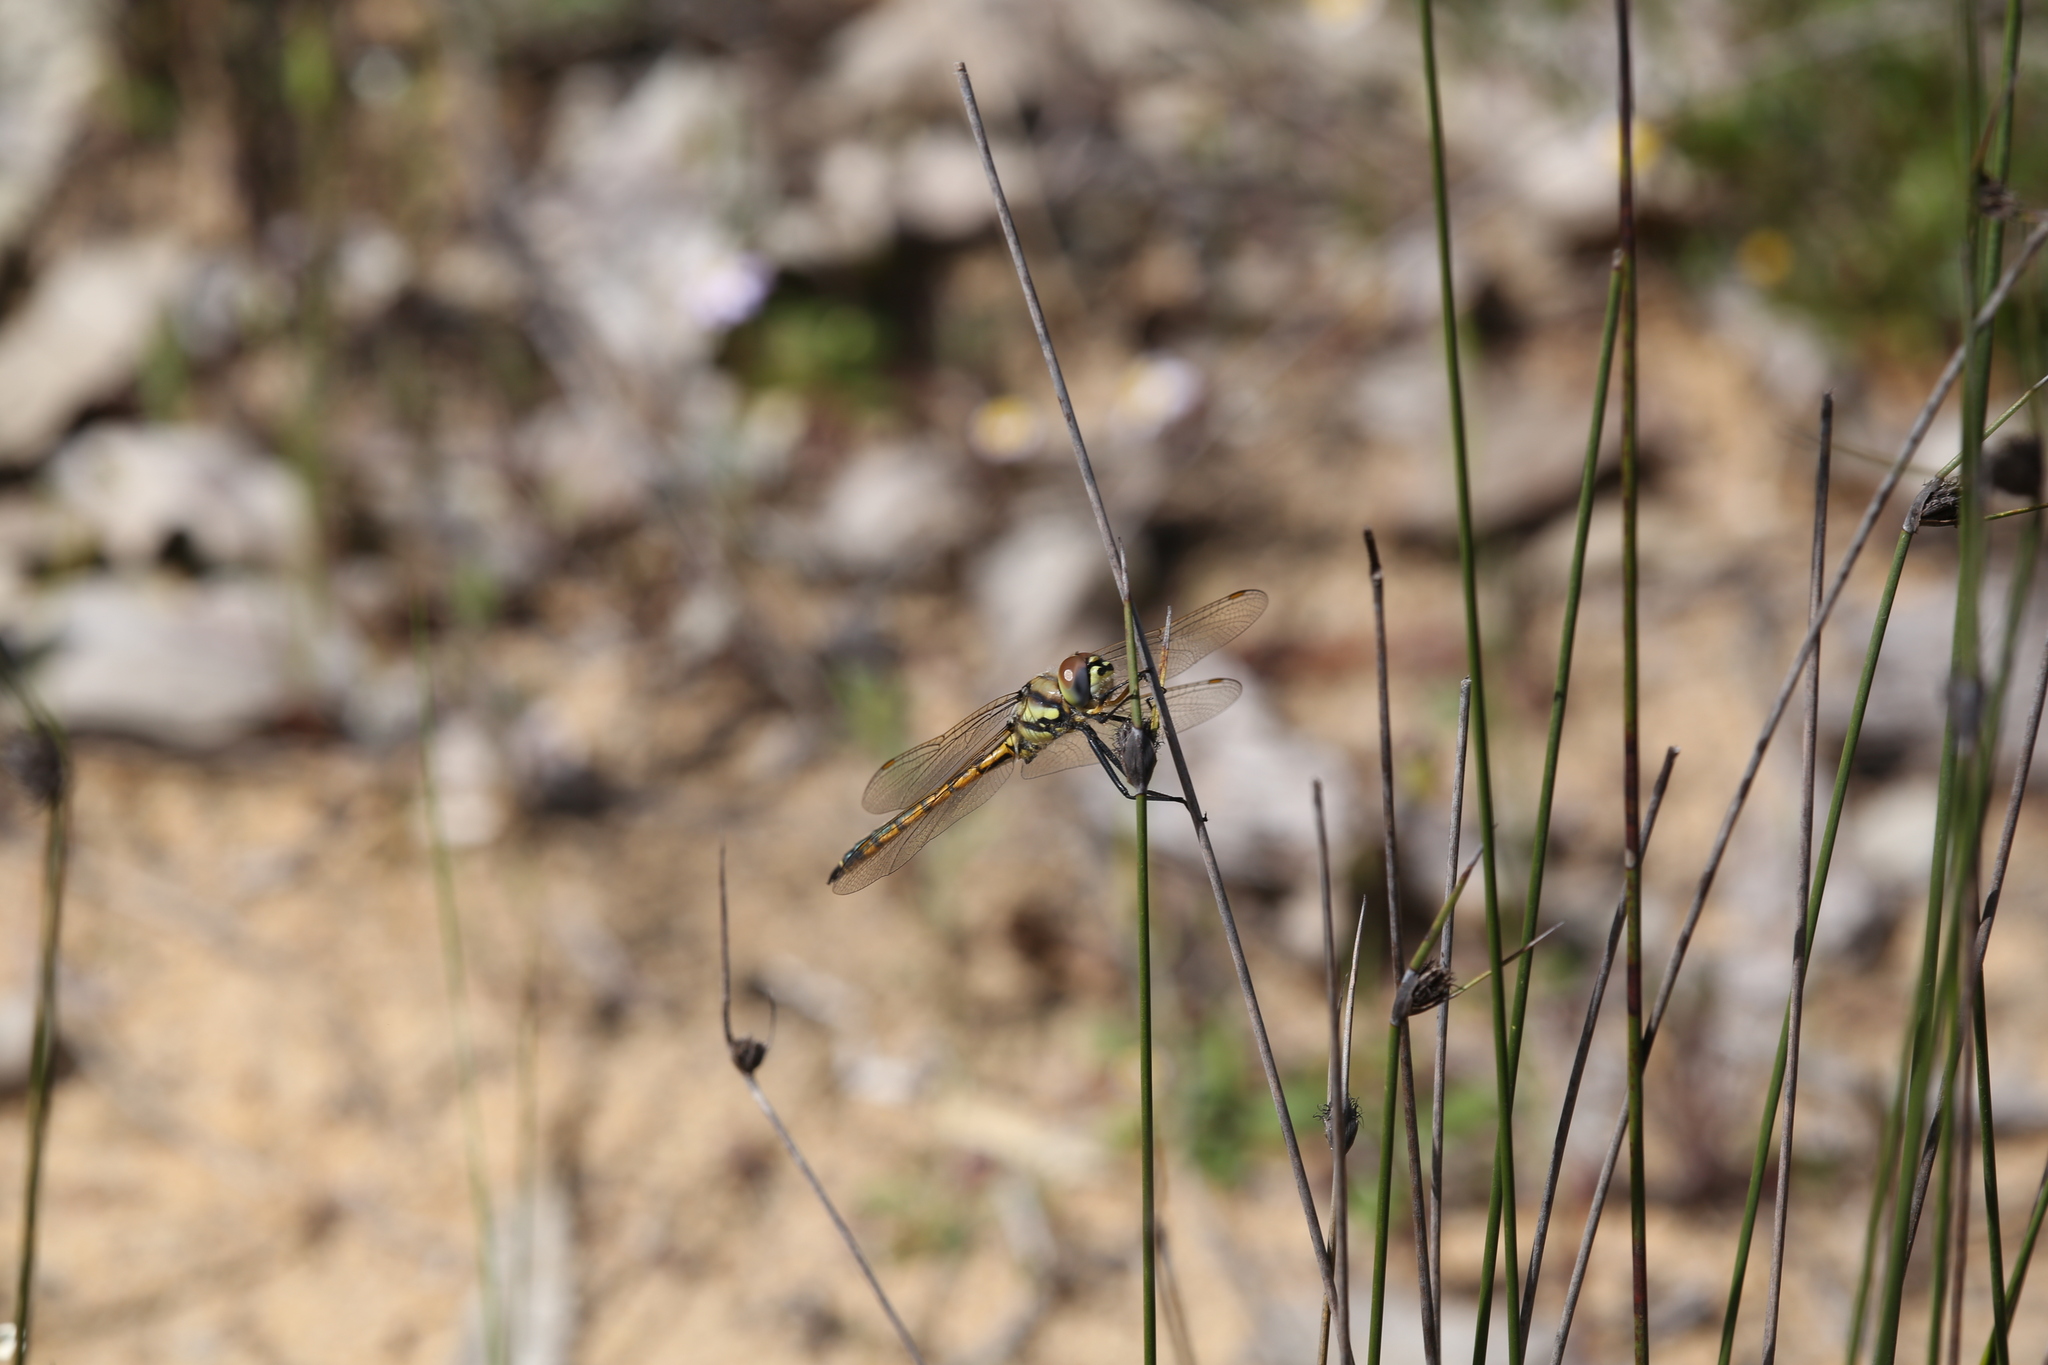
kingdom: Animalia
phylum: Arthropoda
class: Insecta
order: Odonata
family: Corduliidae
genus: Hemicordulia
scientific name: Hemicordulia tau
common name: Tau emerald
